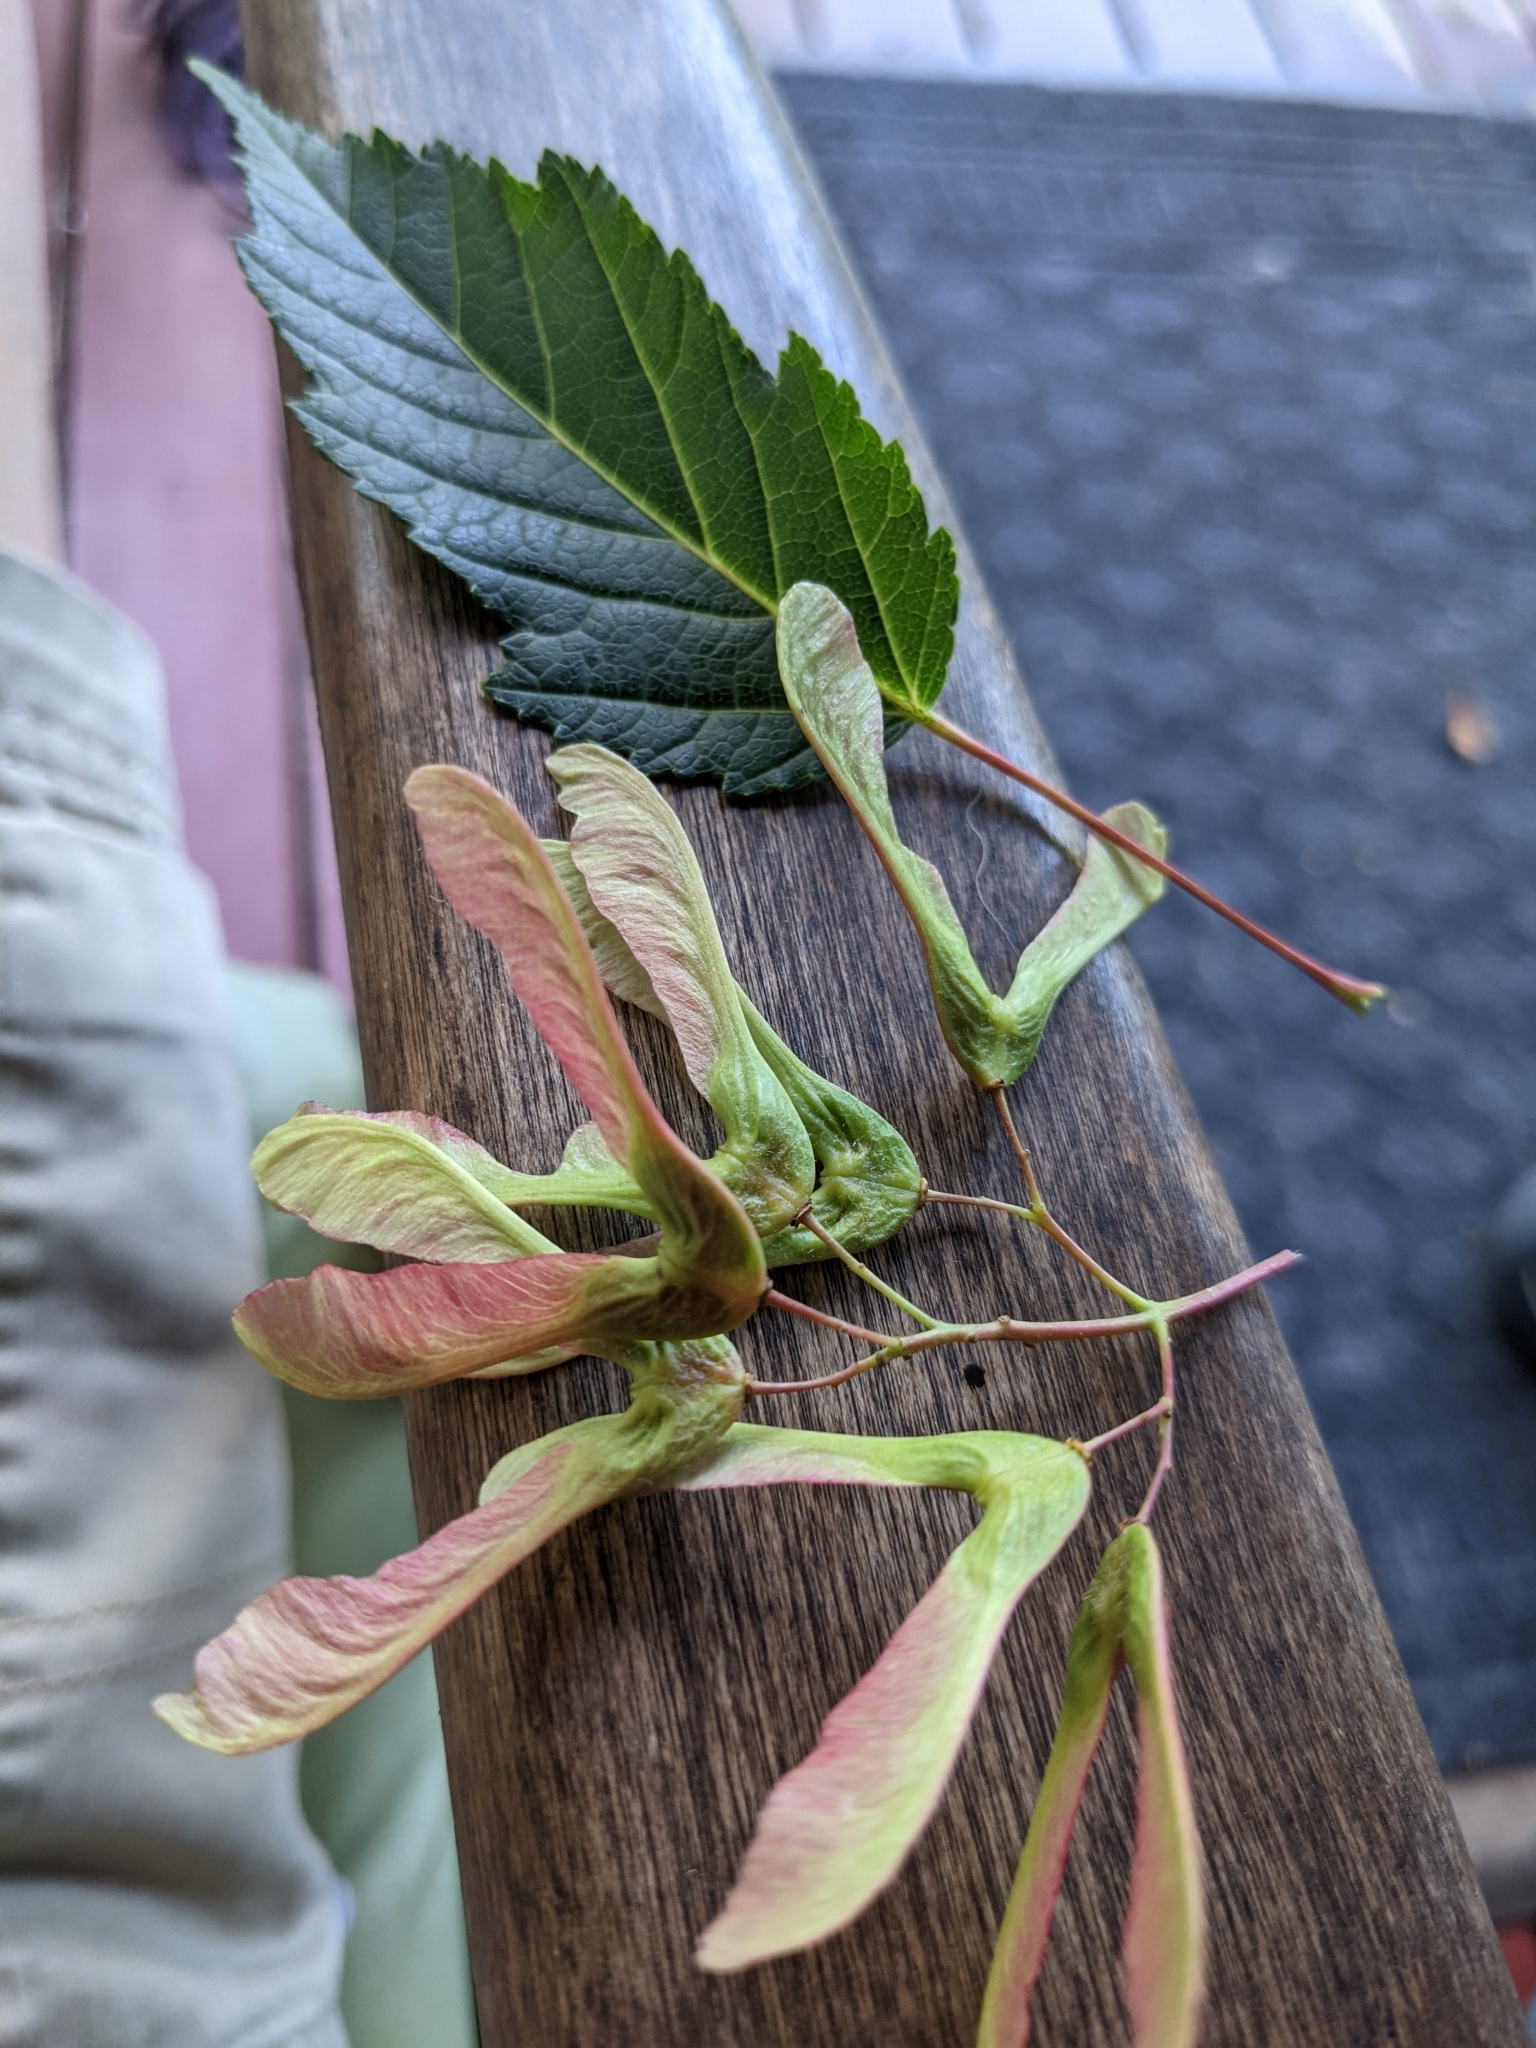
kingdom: Plantae
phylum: Tracheophyta
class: Magnoliopsida
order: Sapindales
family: Sapindaceae
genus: Acer
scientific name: Acer tataricum
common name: Tartar maple
